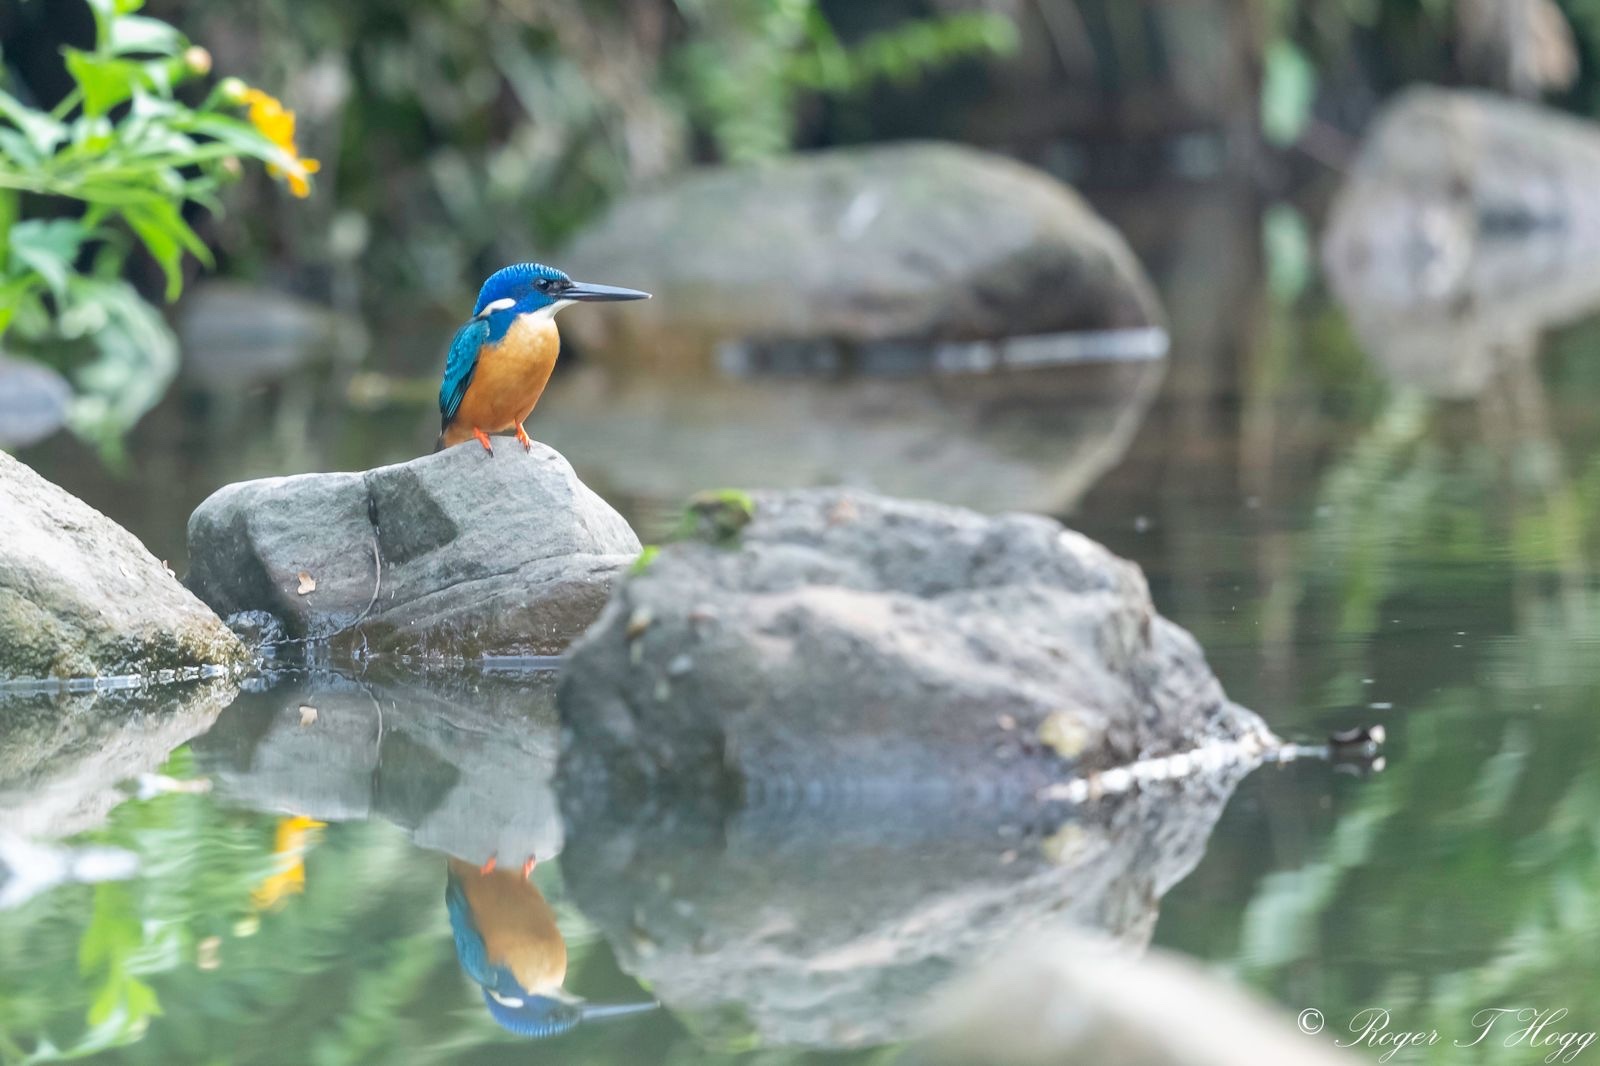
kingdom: Animalia
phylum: Chordata
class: Aves
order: Coraciiformes
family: Alcedinidae
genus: Alcedo
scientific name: Alcedo semitorquata
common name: Half-collared kingfisher
